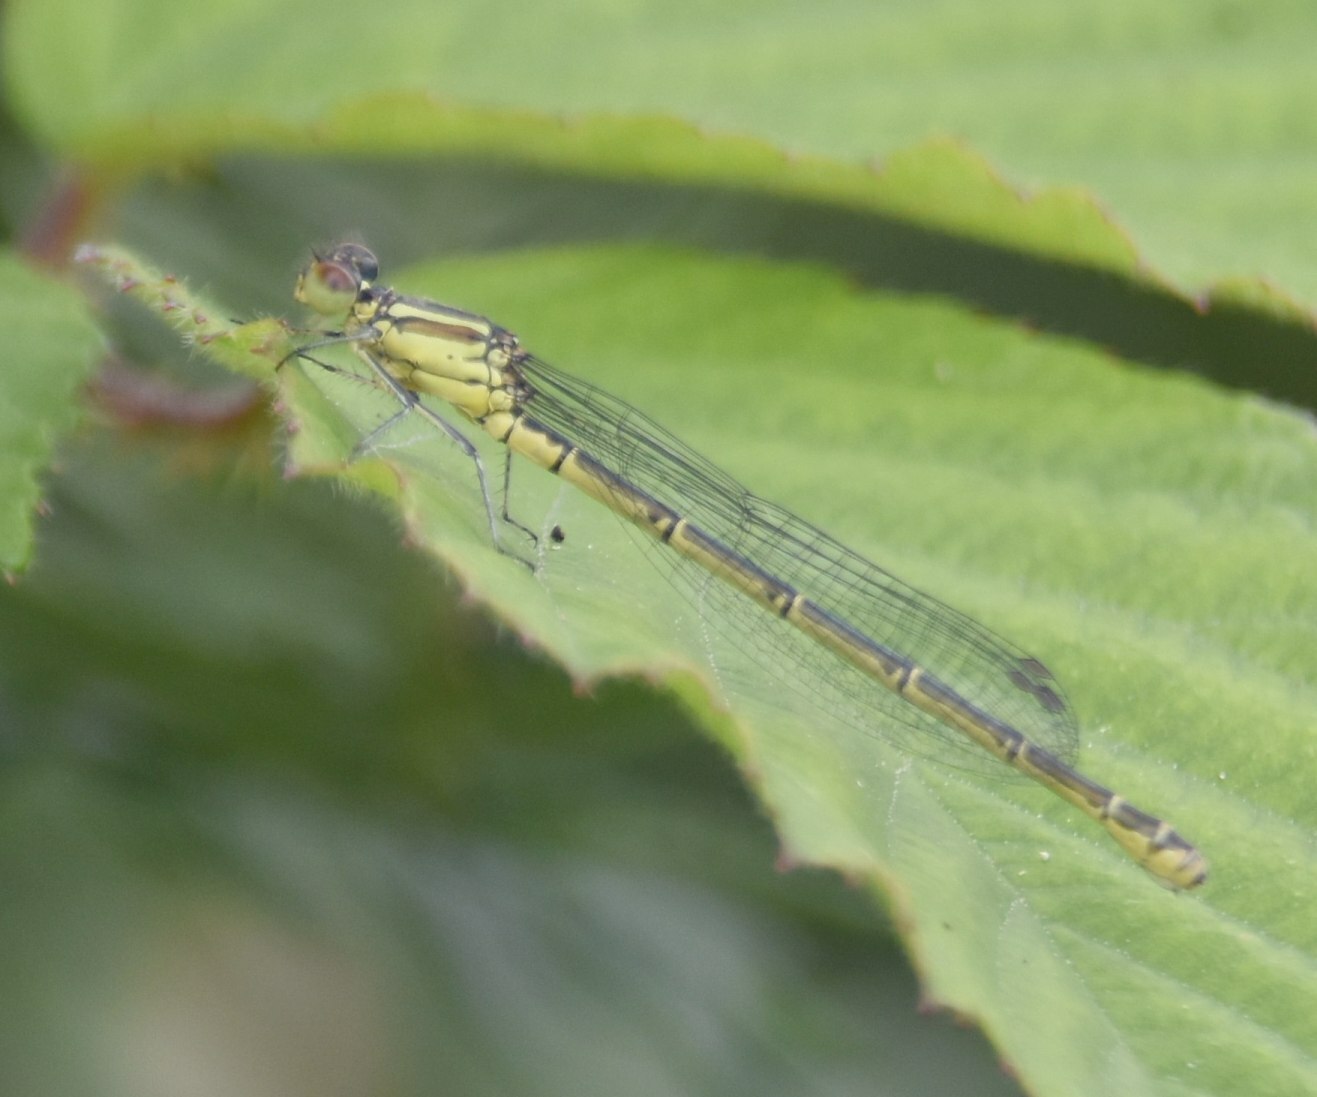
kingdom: Animalia
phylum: Arthropoda
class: Insecta
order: Odonata
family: Coenagrionidae
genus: Coenagrion
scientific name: Coenagrion puella
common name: Azure damselfly
